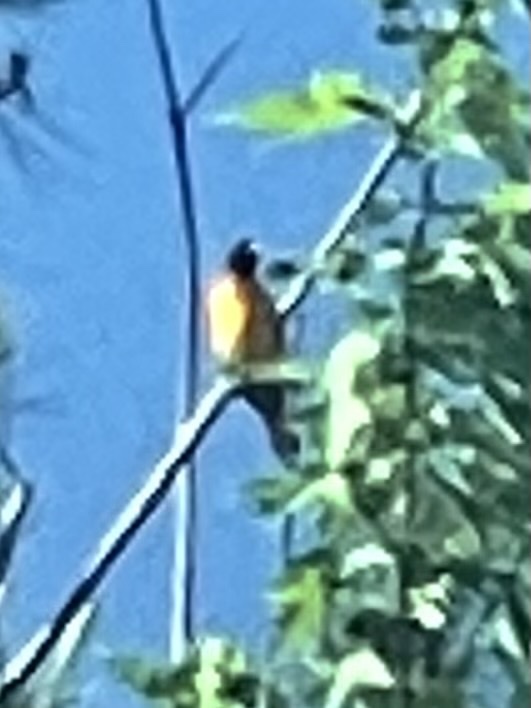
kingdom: Animalia
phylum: Chordata
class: Aves
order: Passeriformes
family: Icteridae
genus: Icterus
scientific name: Icterus galbula
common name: Baltimore oriole
